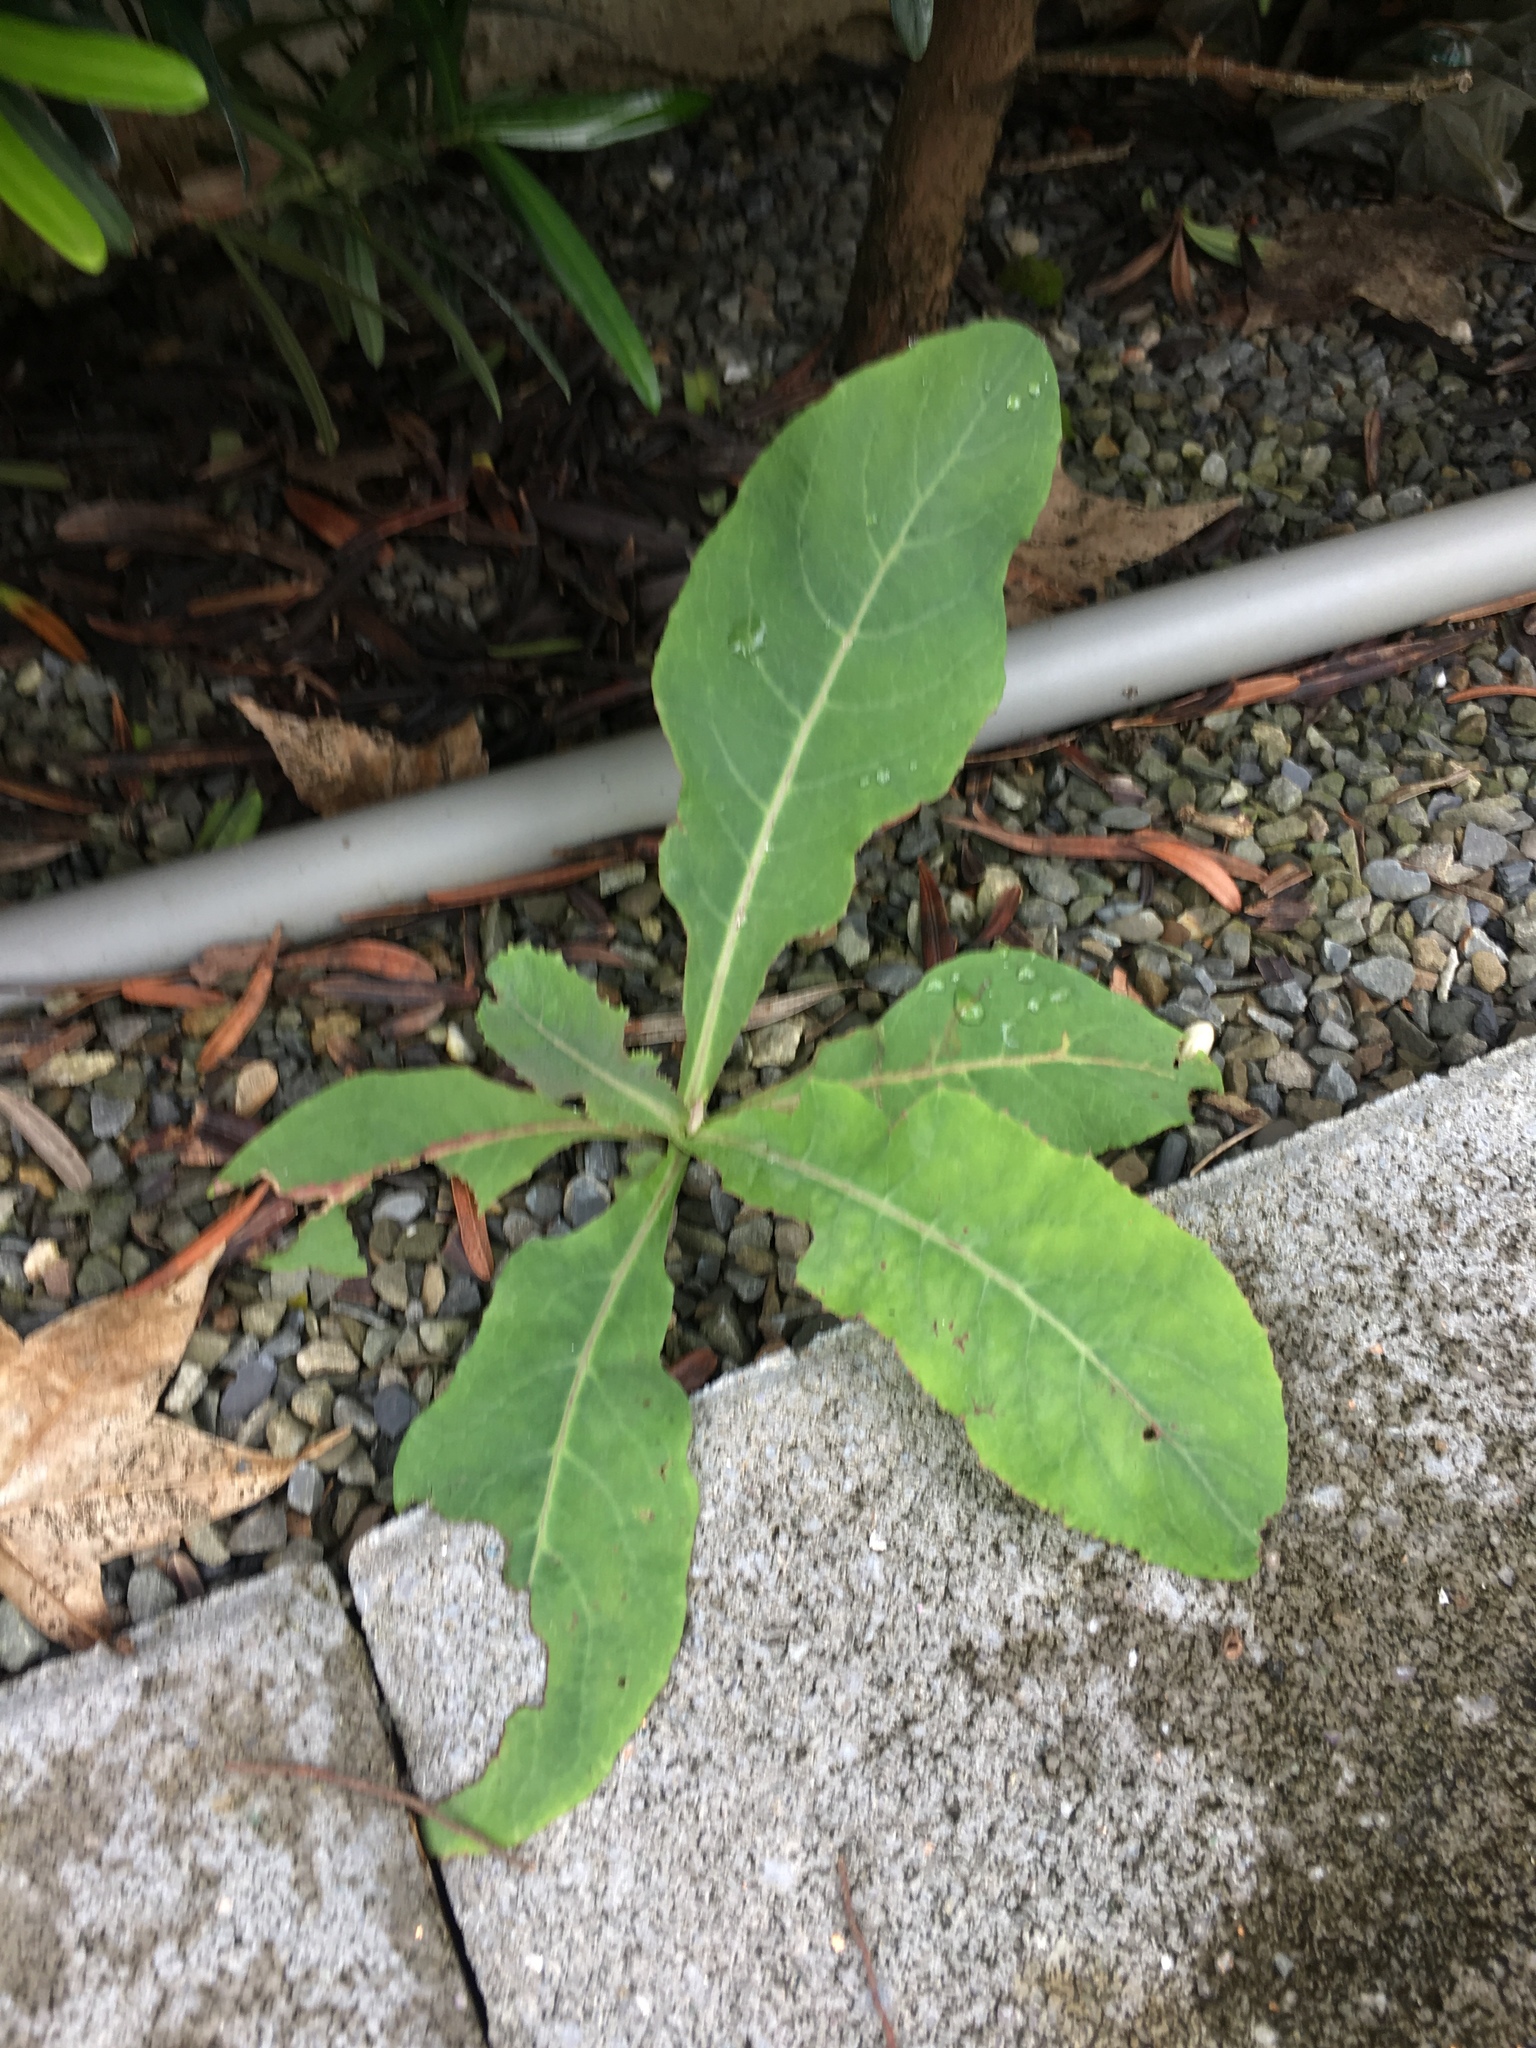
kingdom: Plantae
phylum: Tracheophyta
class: Magnoliopsida
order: Asterales
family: Asteraceae
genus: Sonchus
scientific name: Sonchus arvensis
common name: Perennial sow-thistle
